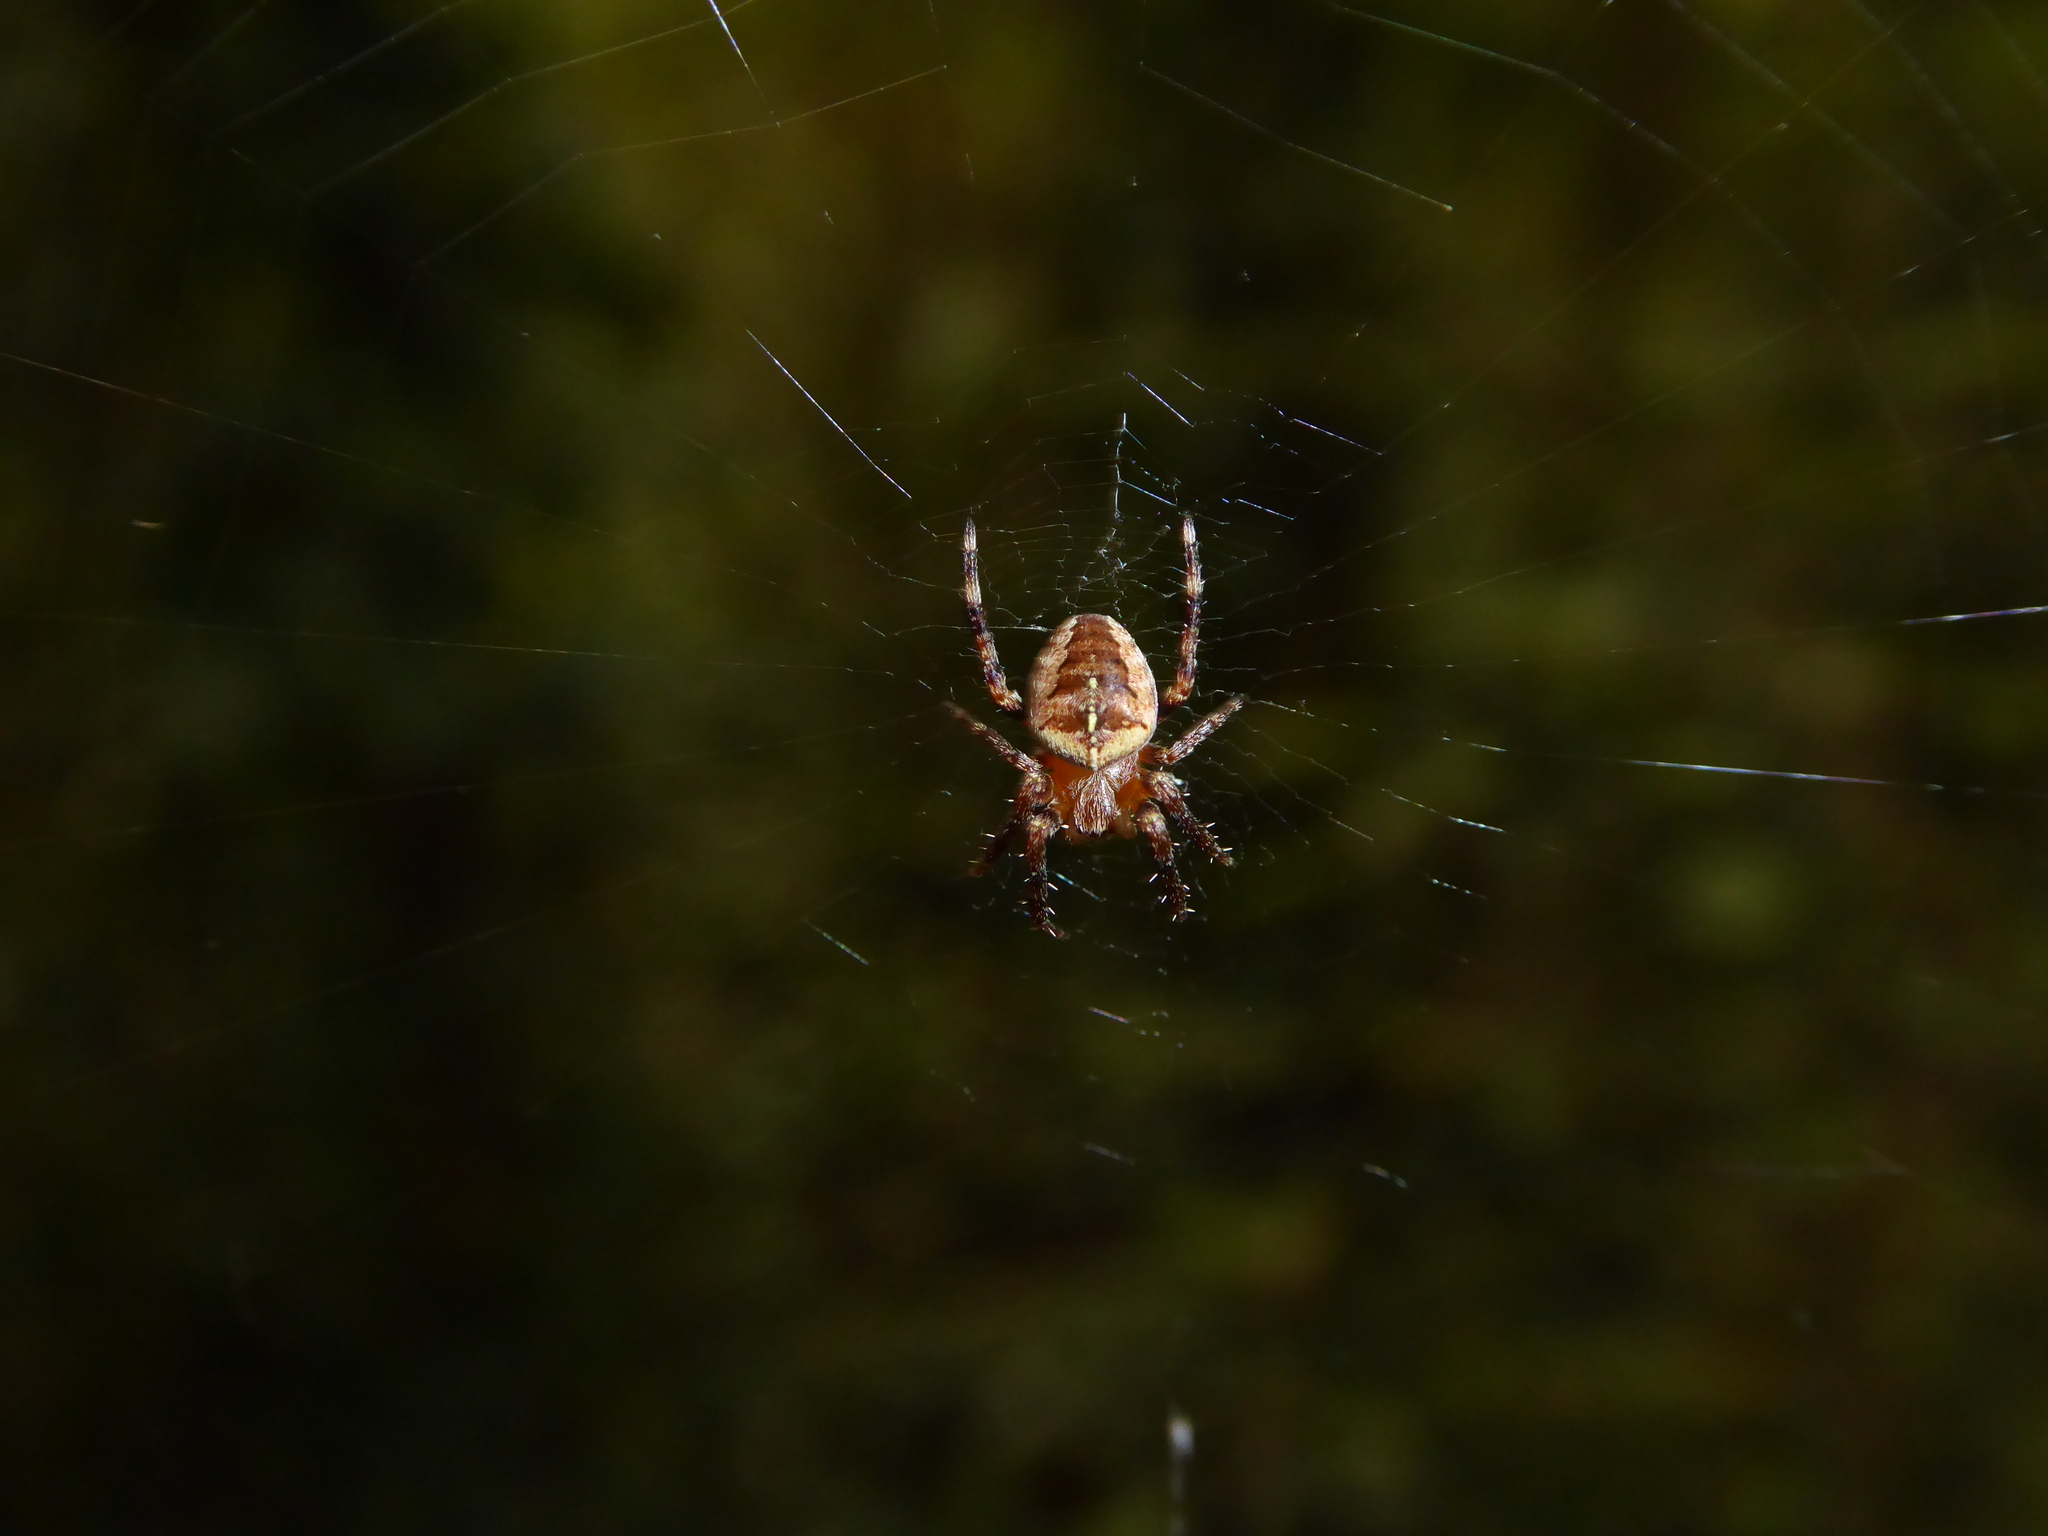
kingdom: Animalia
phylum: Arthropoda
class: Arachnida
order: Araneae
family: Araneidae
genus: Araneus
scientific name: Araneus diadematus
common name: Cross orbweaver
